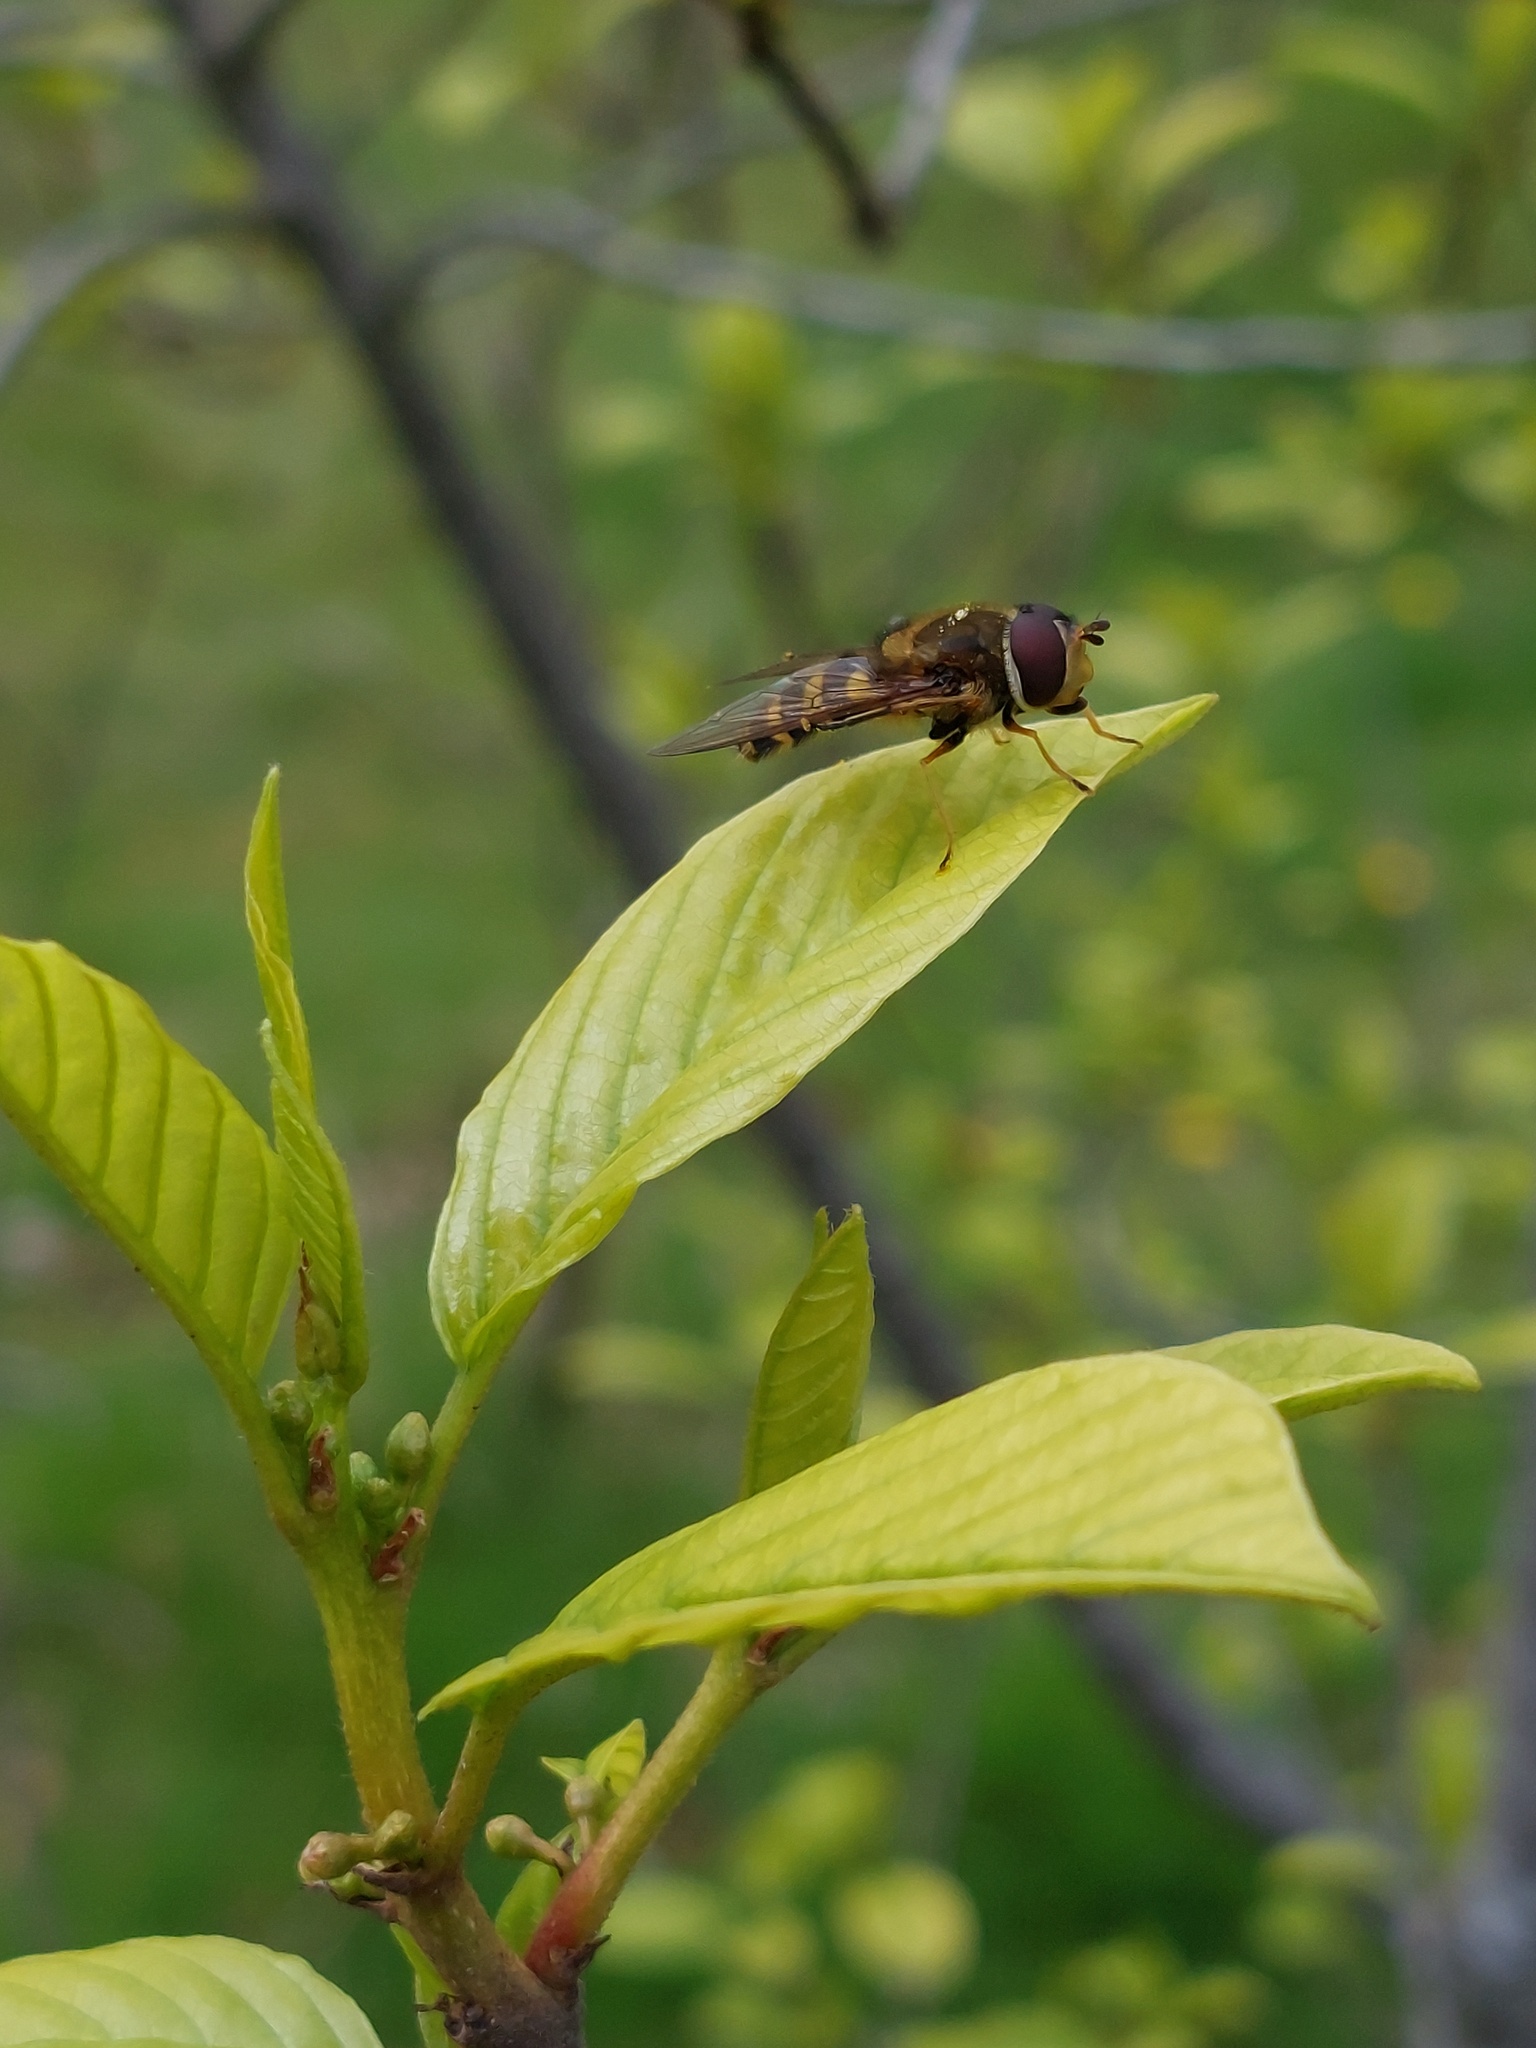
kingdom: Animalia
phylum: Arthropoda
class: Insecta
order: Diptera
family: Syrphidae
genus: Syrphus
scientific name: Syrphus
